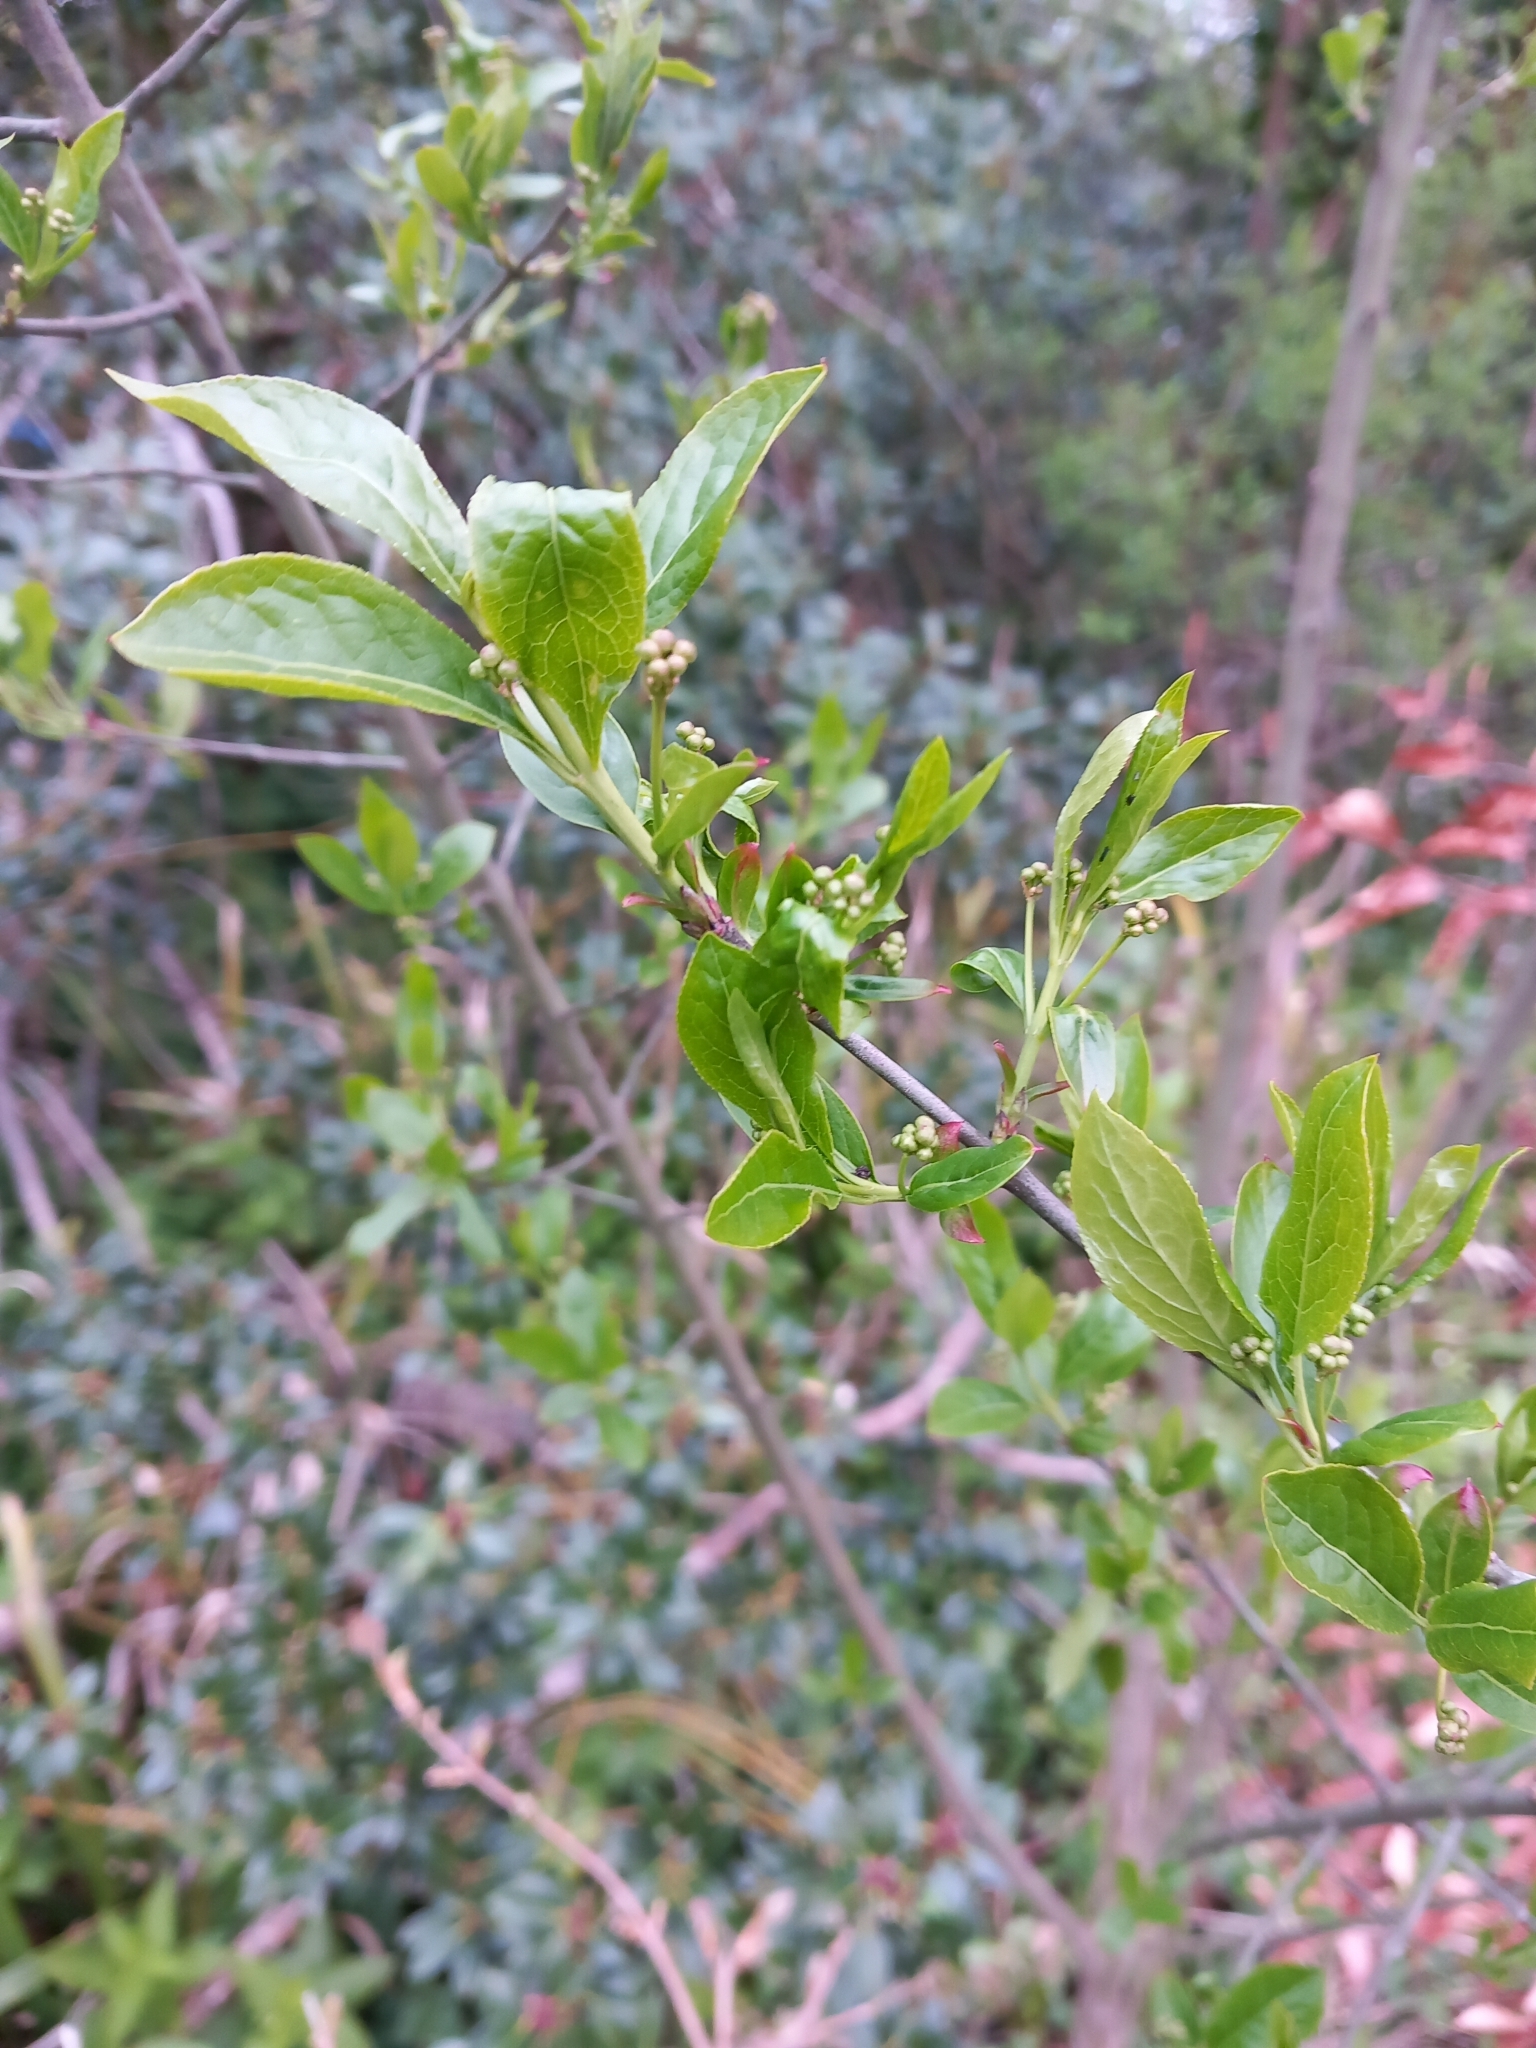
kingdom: Plantae
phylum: Tracheophyta
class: Magnoliopsida
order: Celastrales
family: Celastraceae
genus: Euonymus
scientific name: Euonymus europaeus
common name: Spindle
